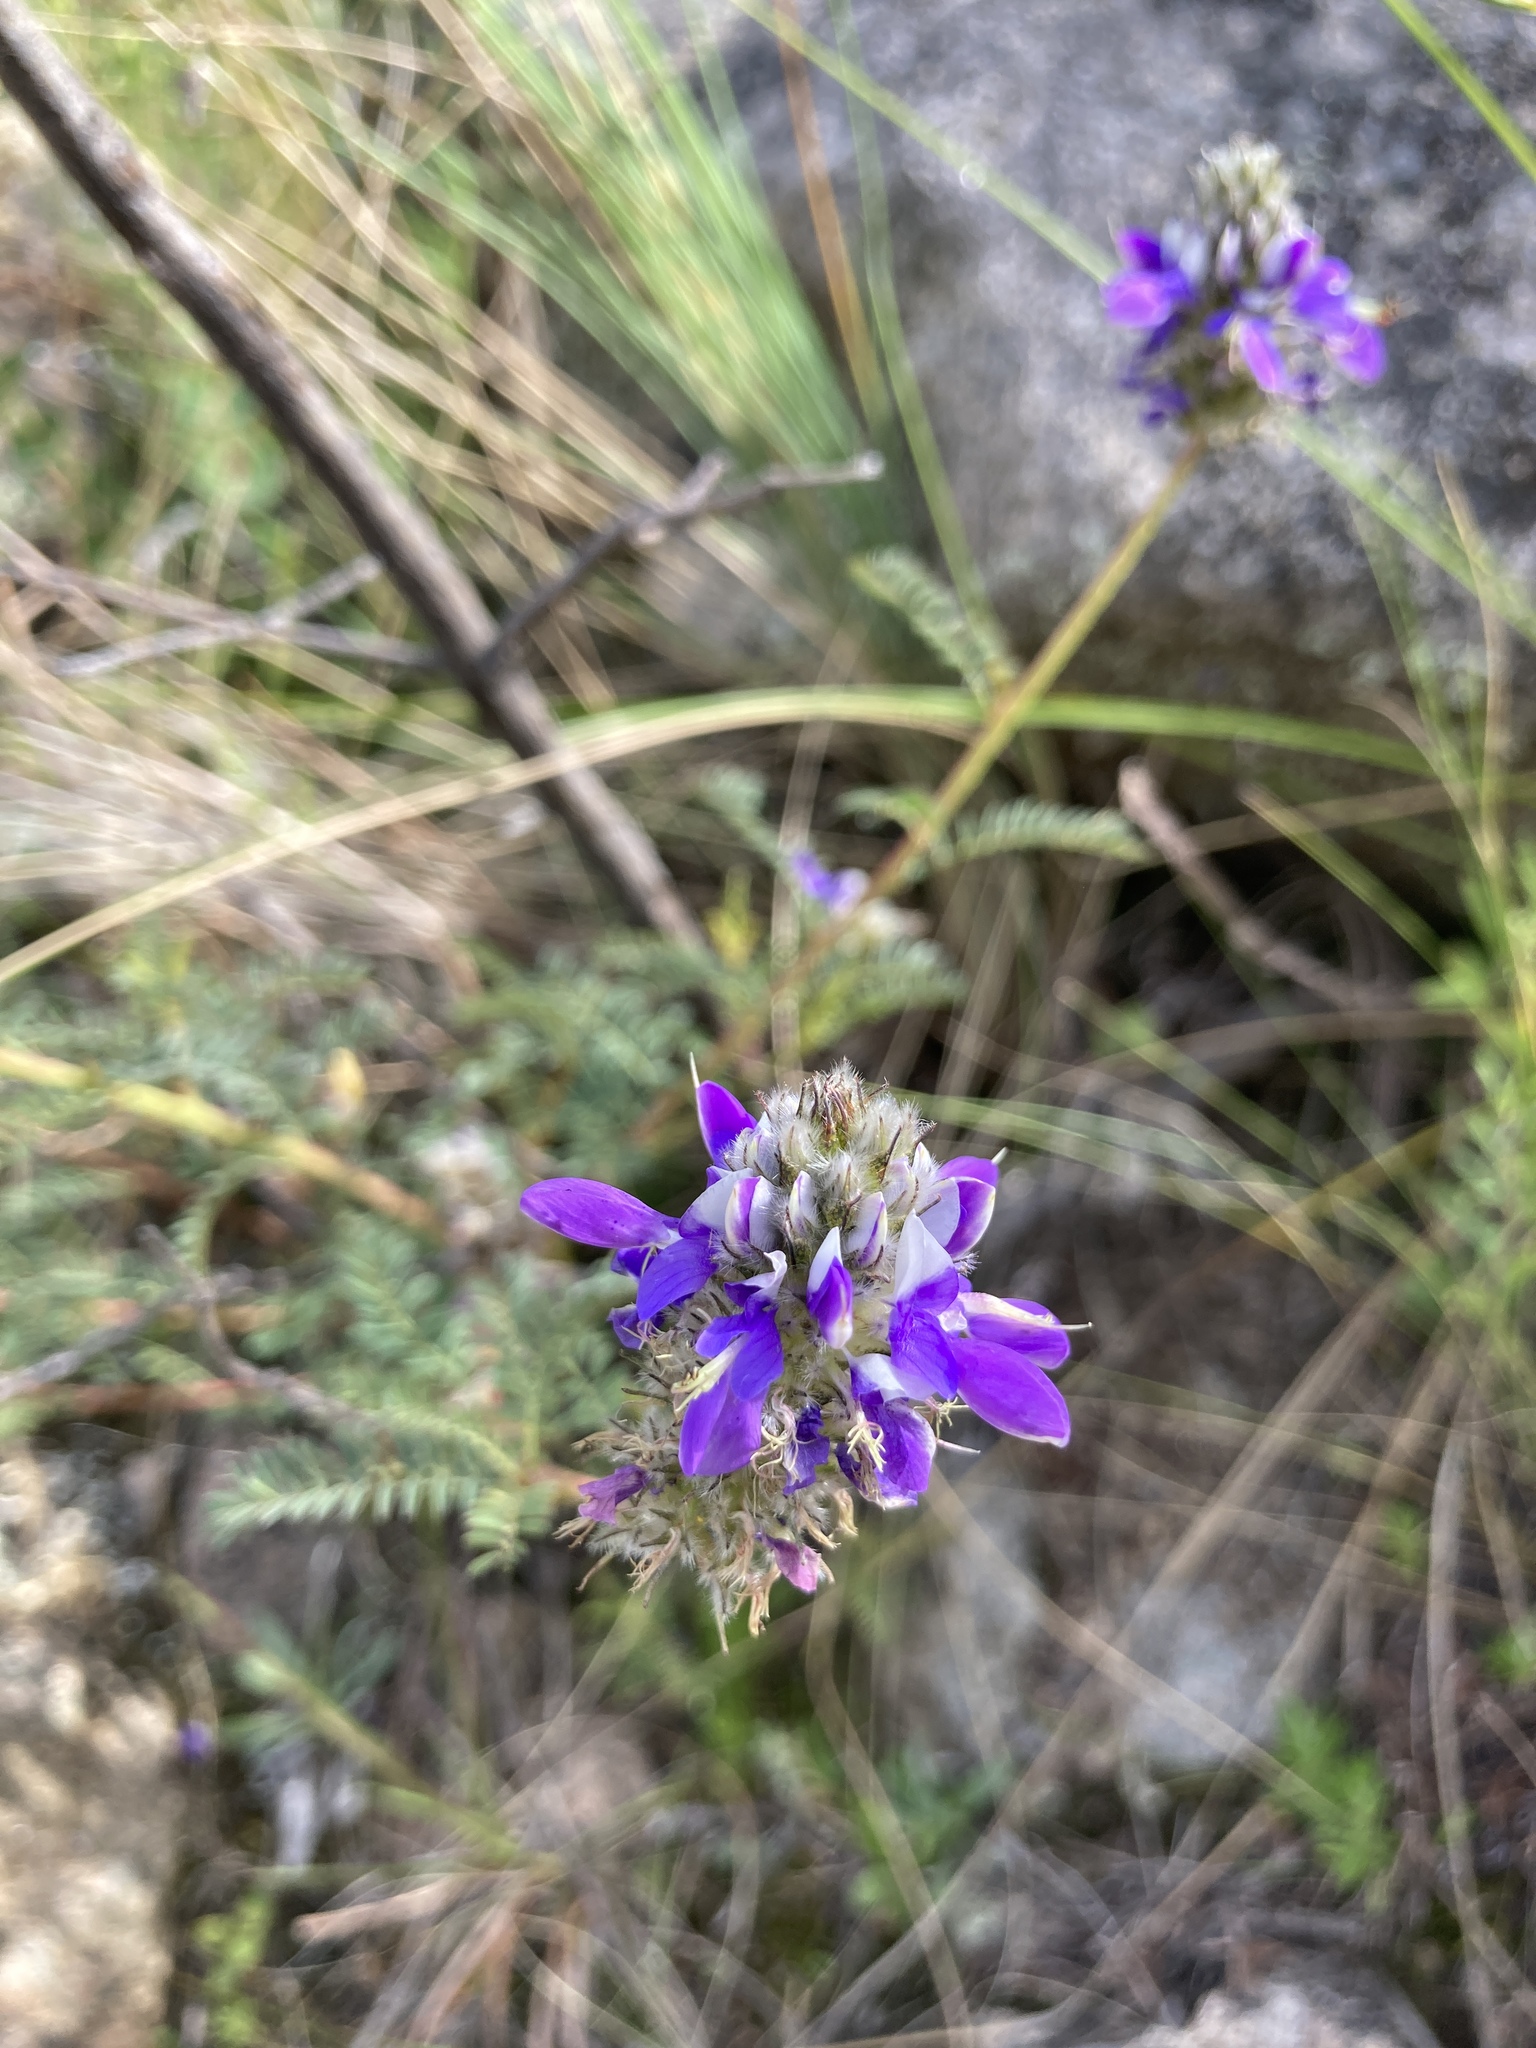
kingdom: Plantae
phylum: Tracheophyta
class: Magnoliopsida
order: Fabales
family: Fabaceae
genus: Dalea
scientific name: Dalea elegans
